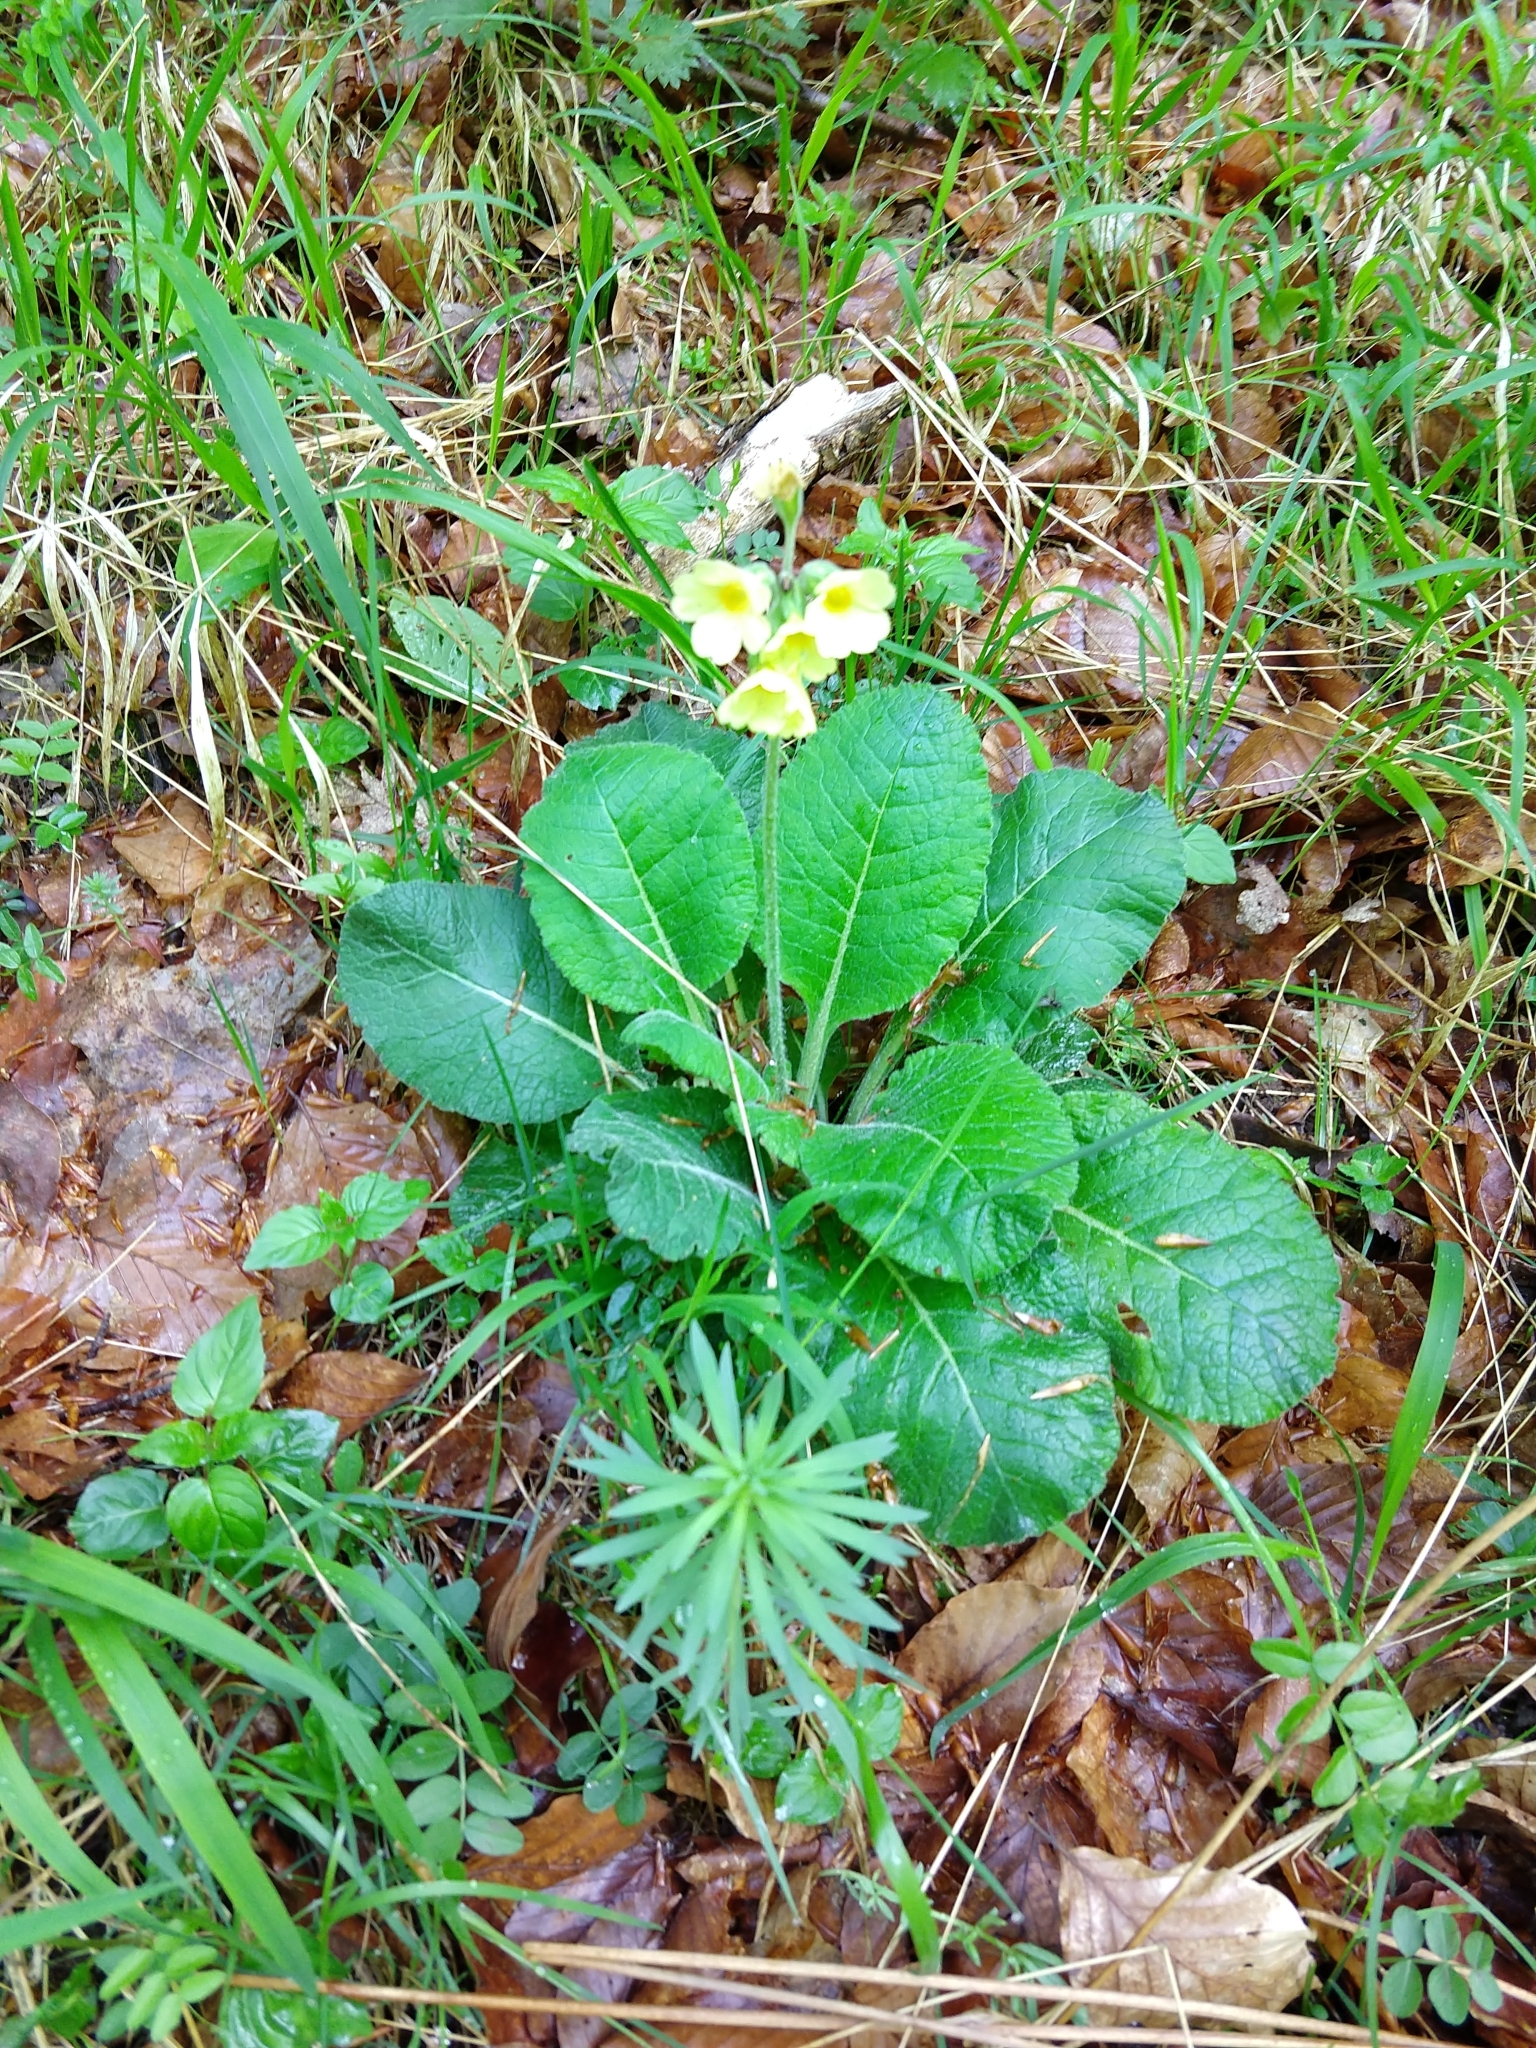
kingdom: Plantae
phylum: Tracheophyta
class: Magnoliopsida
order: Ericales
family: Primulaceae
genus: Primula
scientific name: Primula elatior
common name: Oxlip
